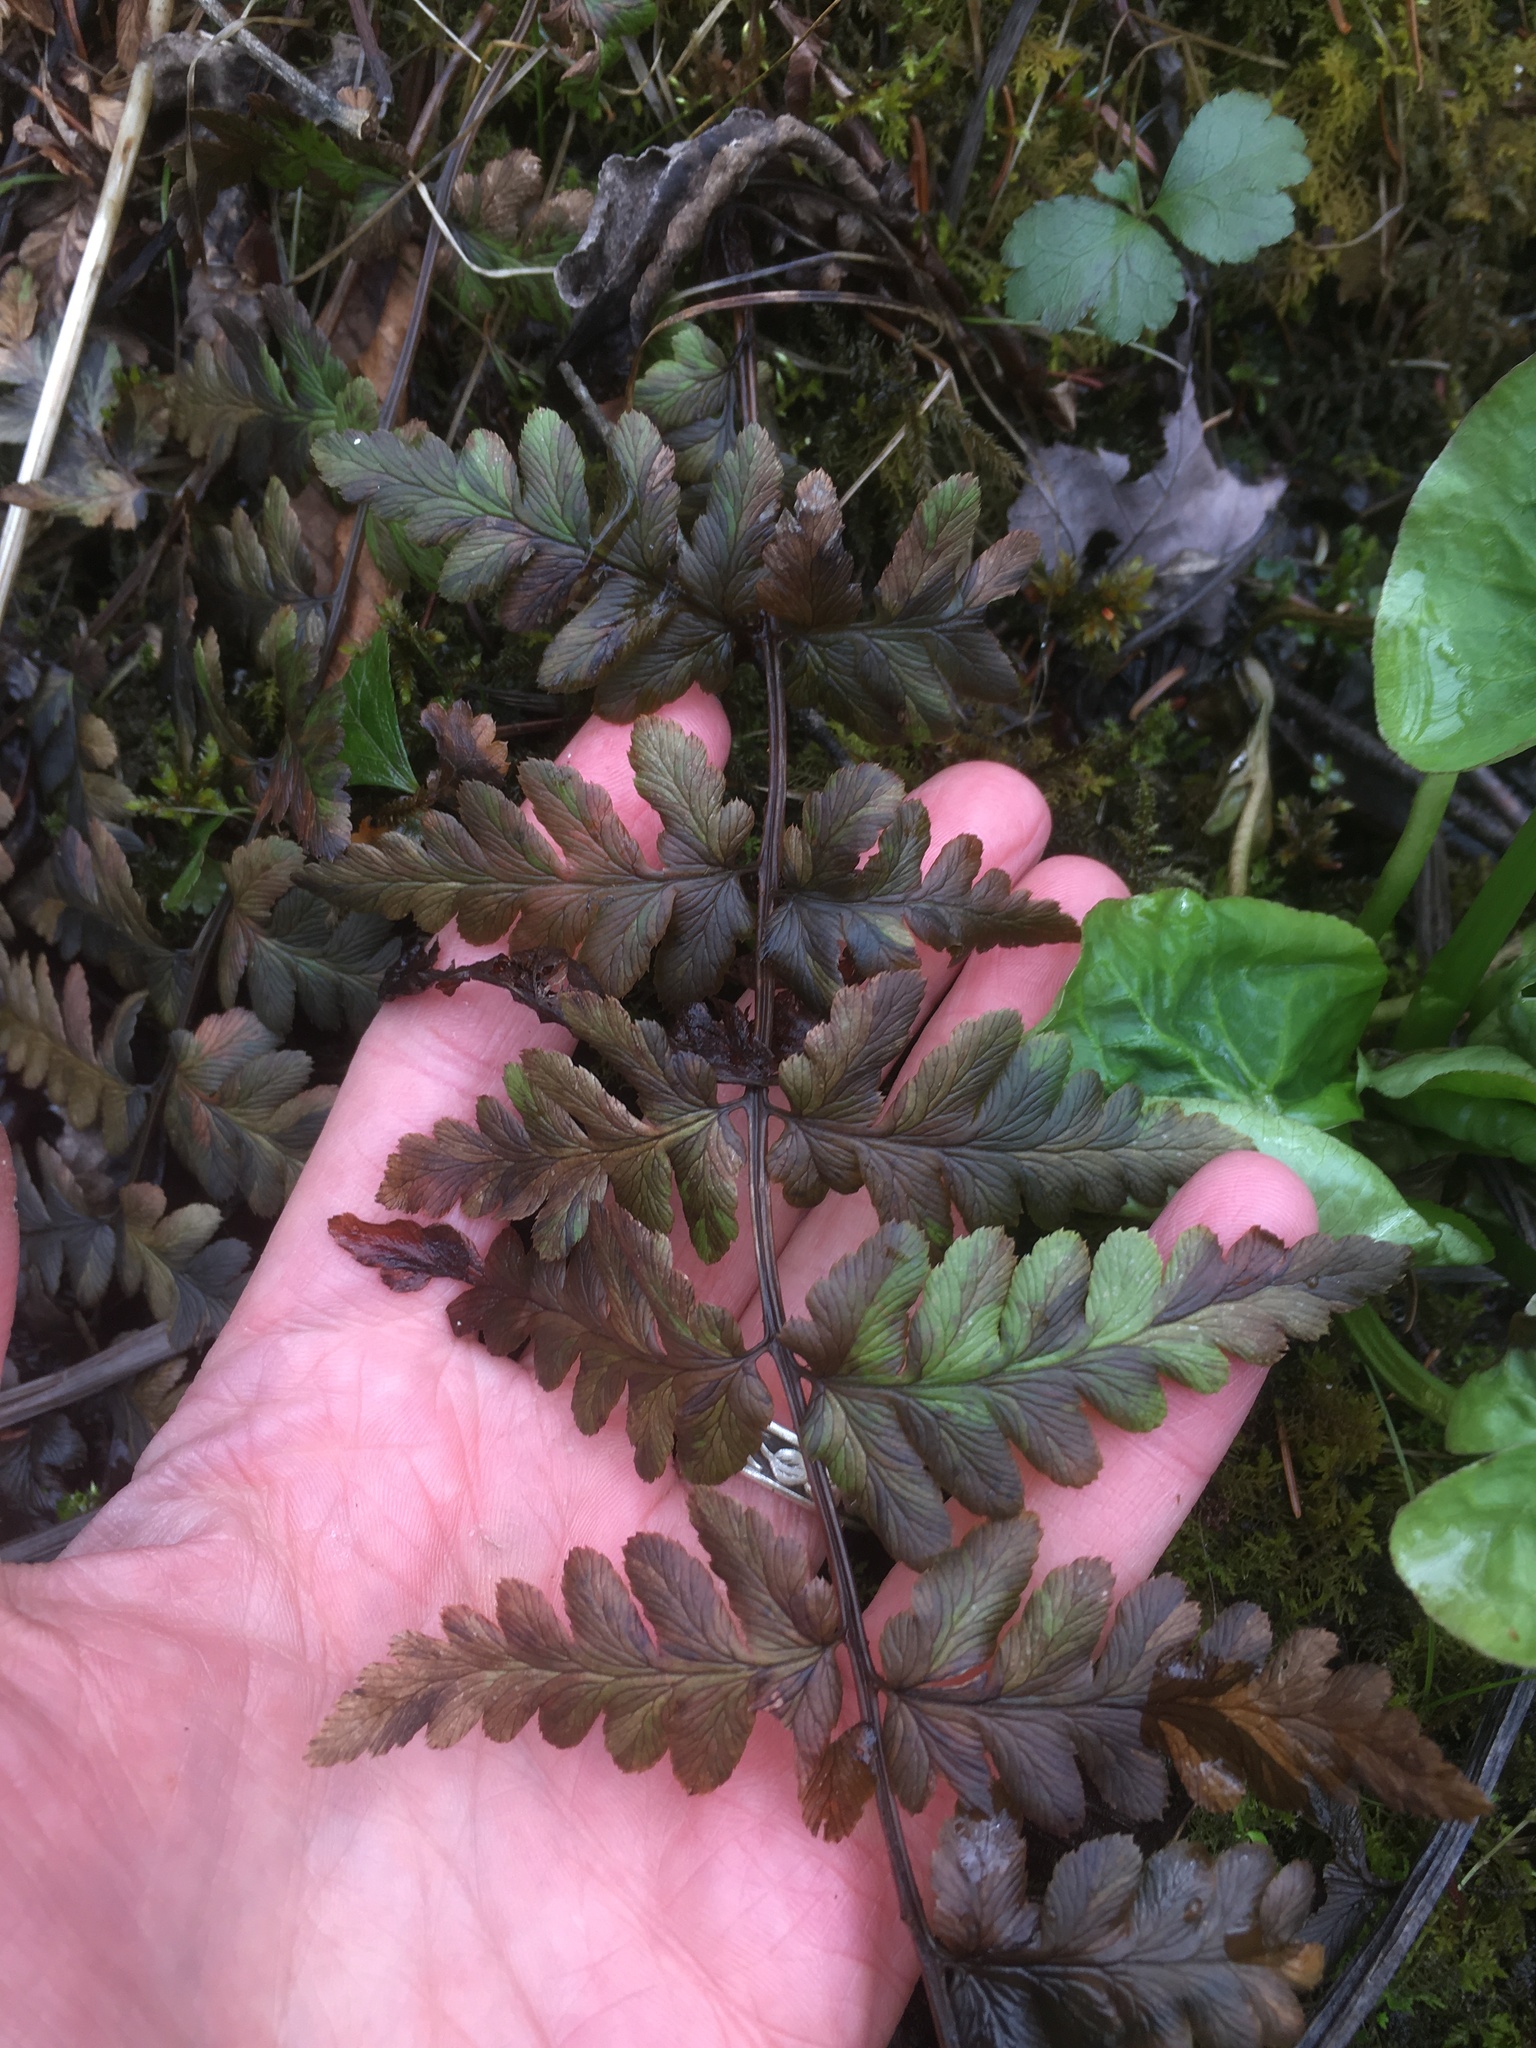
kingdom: Plantae
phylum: Tracheophyta
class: Polypodiopsida
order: Polypodiales
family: Dryopteridaceae
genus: Dryopteris
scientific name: Dryopteris cristata
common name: Crested wood fern
